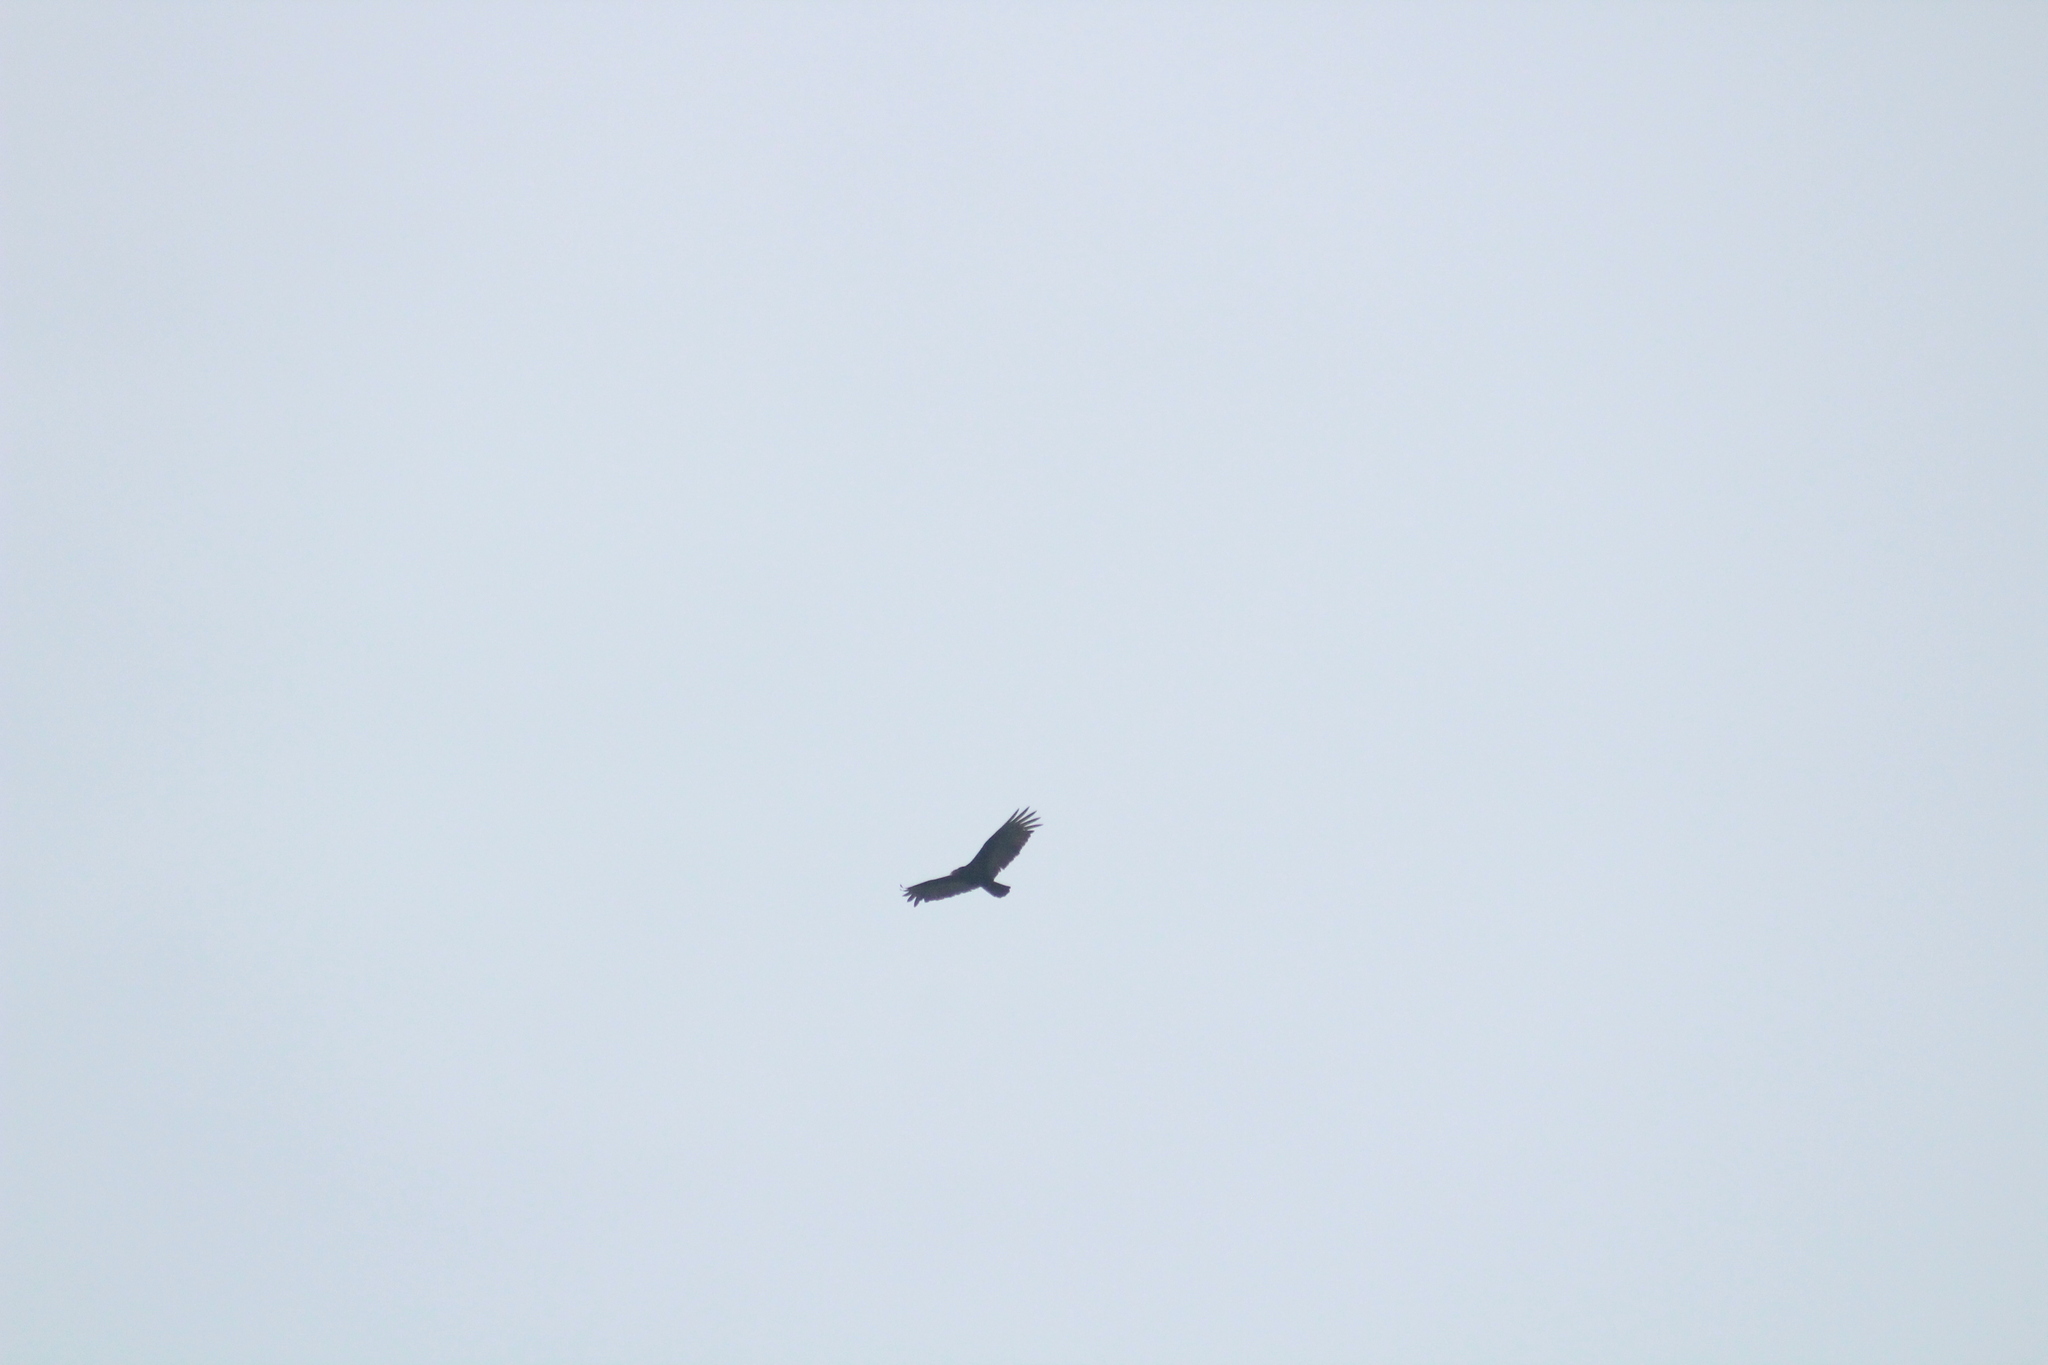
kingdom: Animalia
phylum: Chordata
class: Aves
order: Accipitriformes
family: Cathartidae
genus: Cathartes
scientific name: Cathartes aura
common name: Turkey vulture
